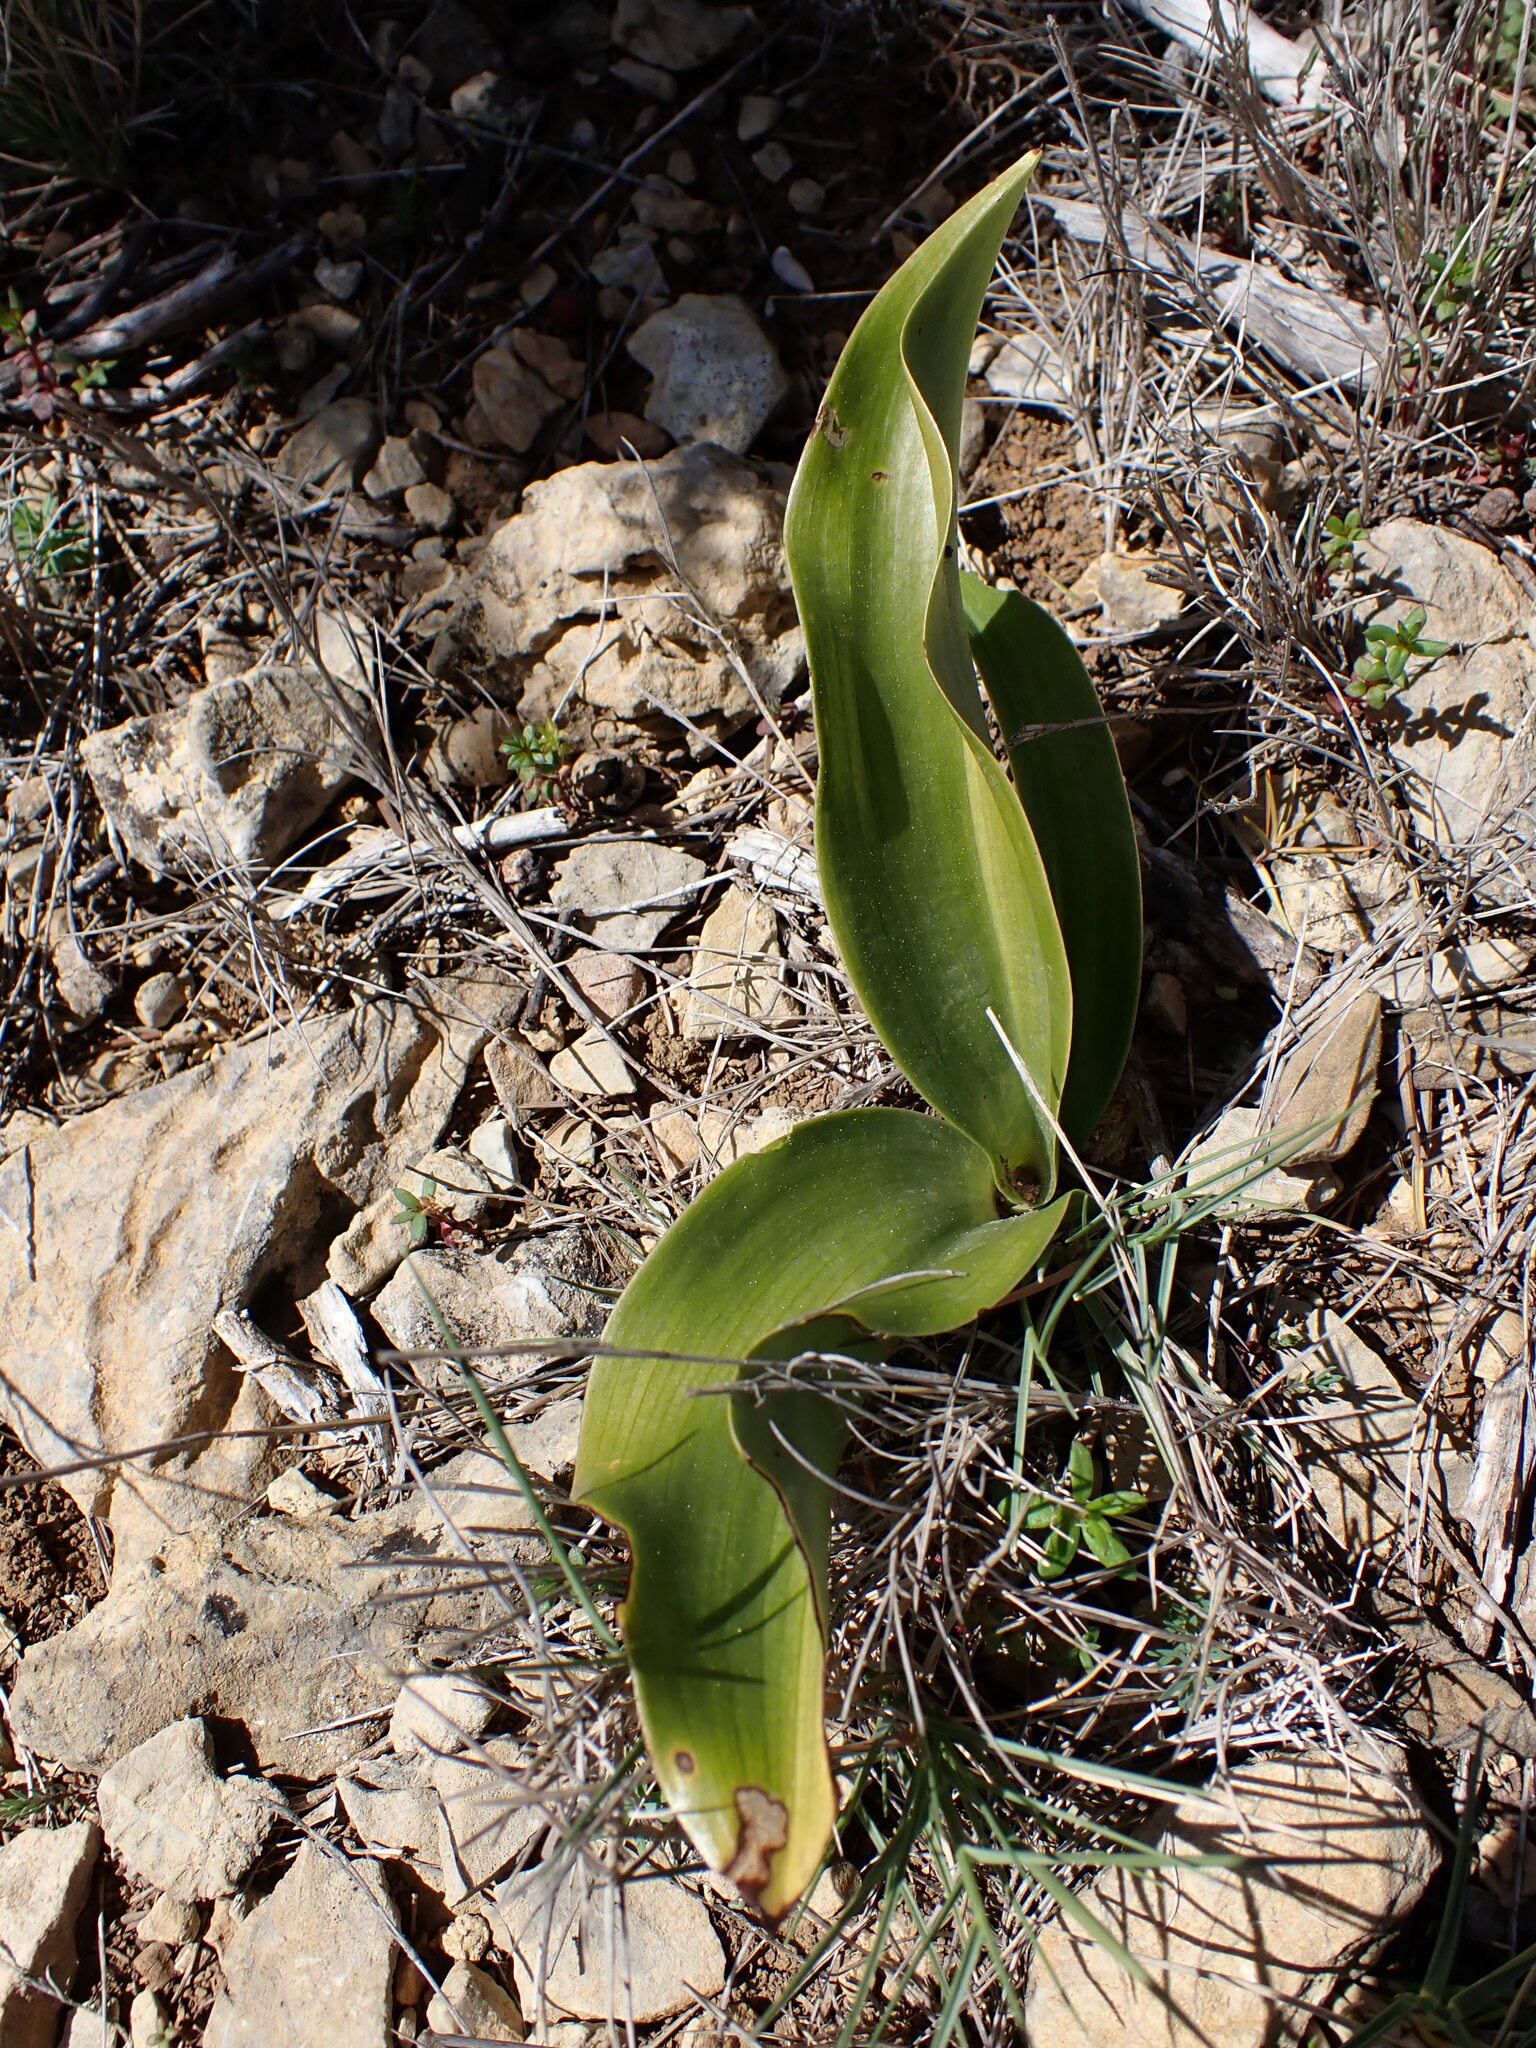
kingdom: Plantae
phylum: Tracheophyta
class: Liliopsida
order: Asparagales
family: Orchidaceae
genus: Himantoglossum
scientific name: Himantoglossum robertianum
